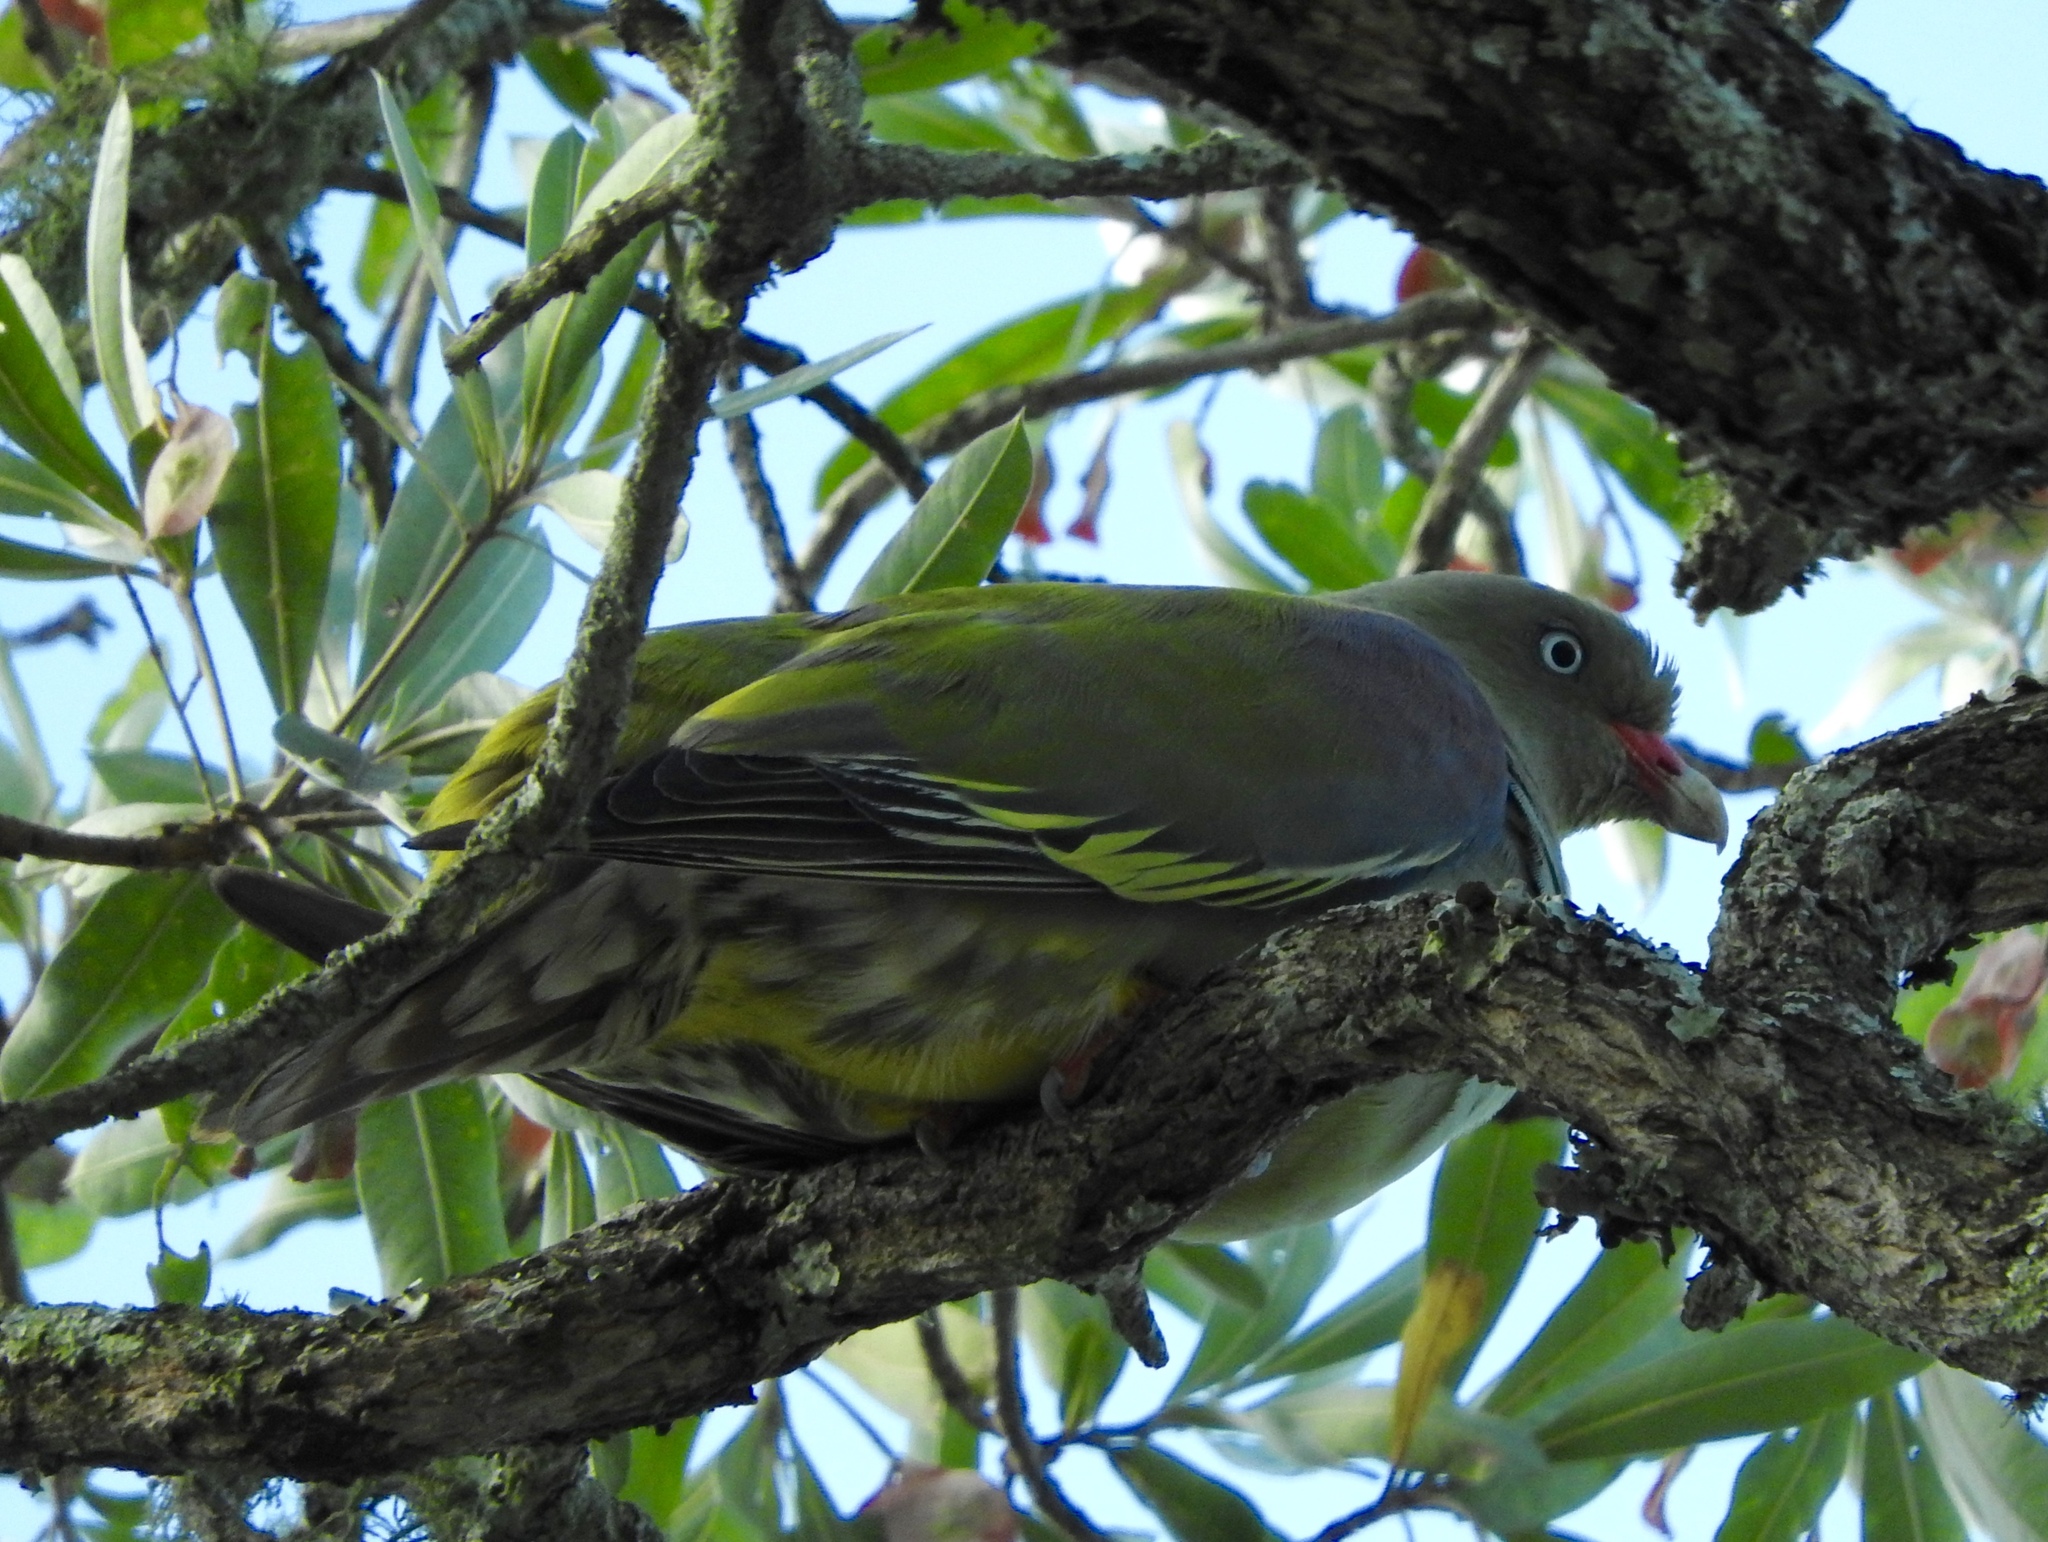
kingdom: Animalia
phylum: Chordata
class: Aves
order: Columbiformes
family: Columbidae
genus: Treron
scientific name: Treron calvus
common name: African green pigeon
